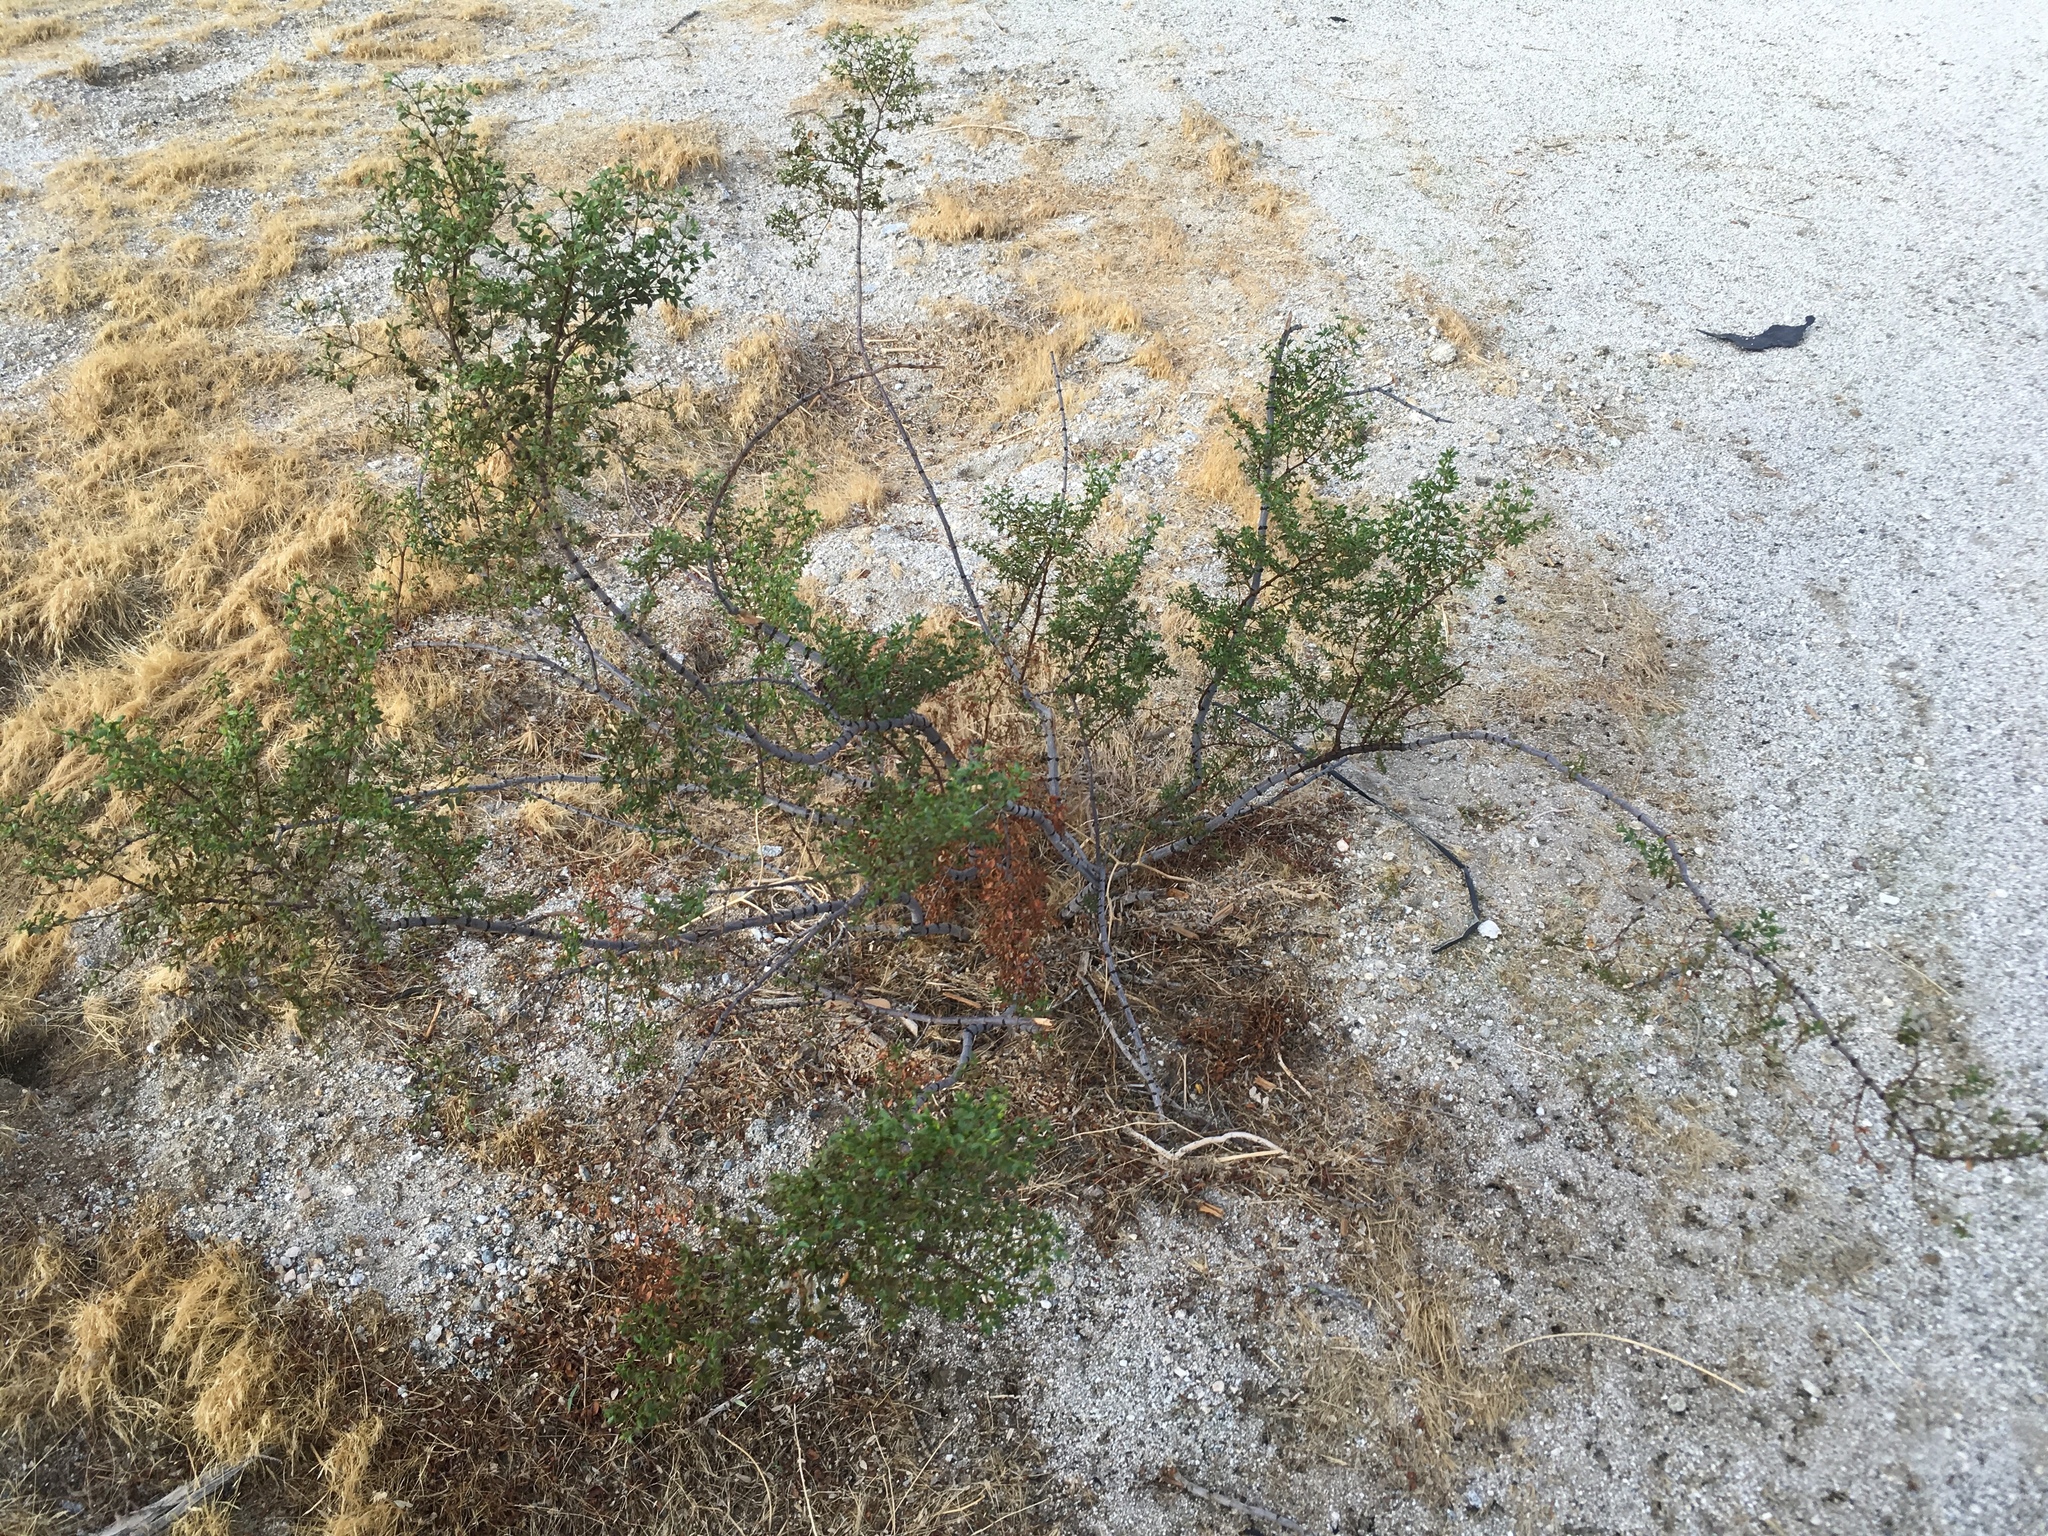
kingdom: Plantae
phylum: Tracheophyta
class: Magnoliopsida
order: Zygophyllales
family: Zygophyllaceae
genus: Larrea
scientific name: Larrea tridentata
